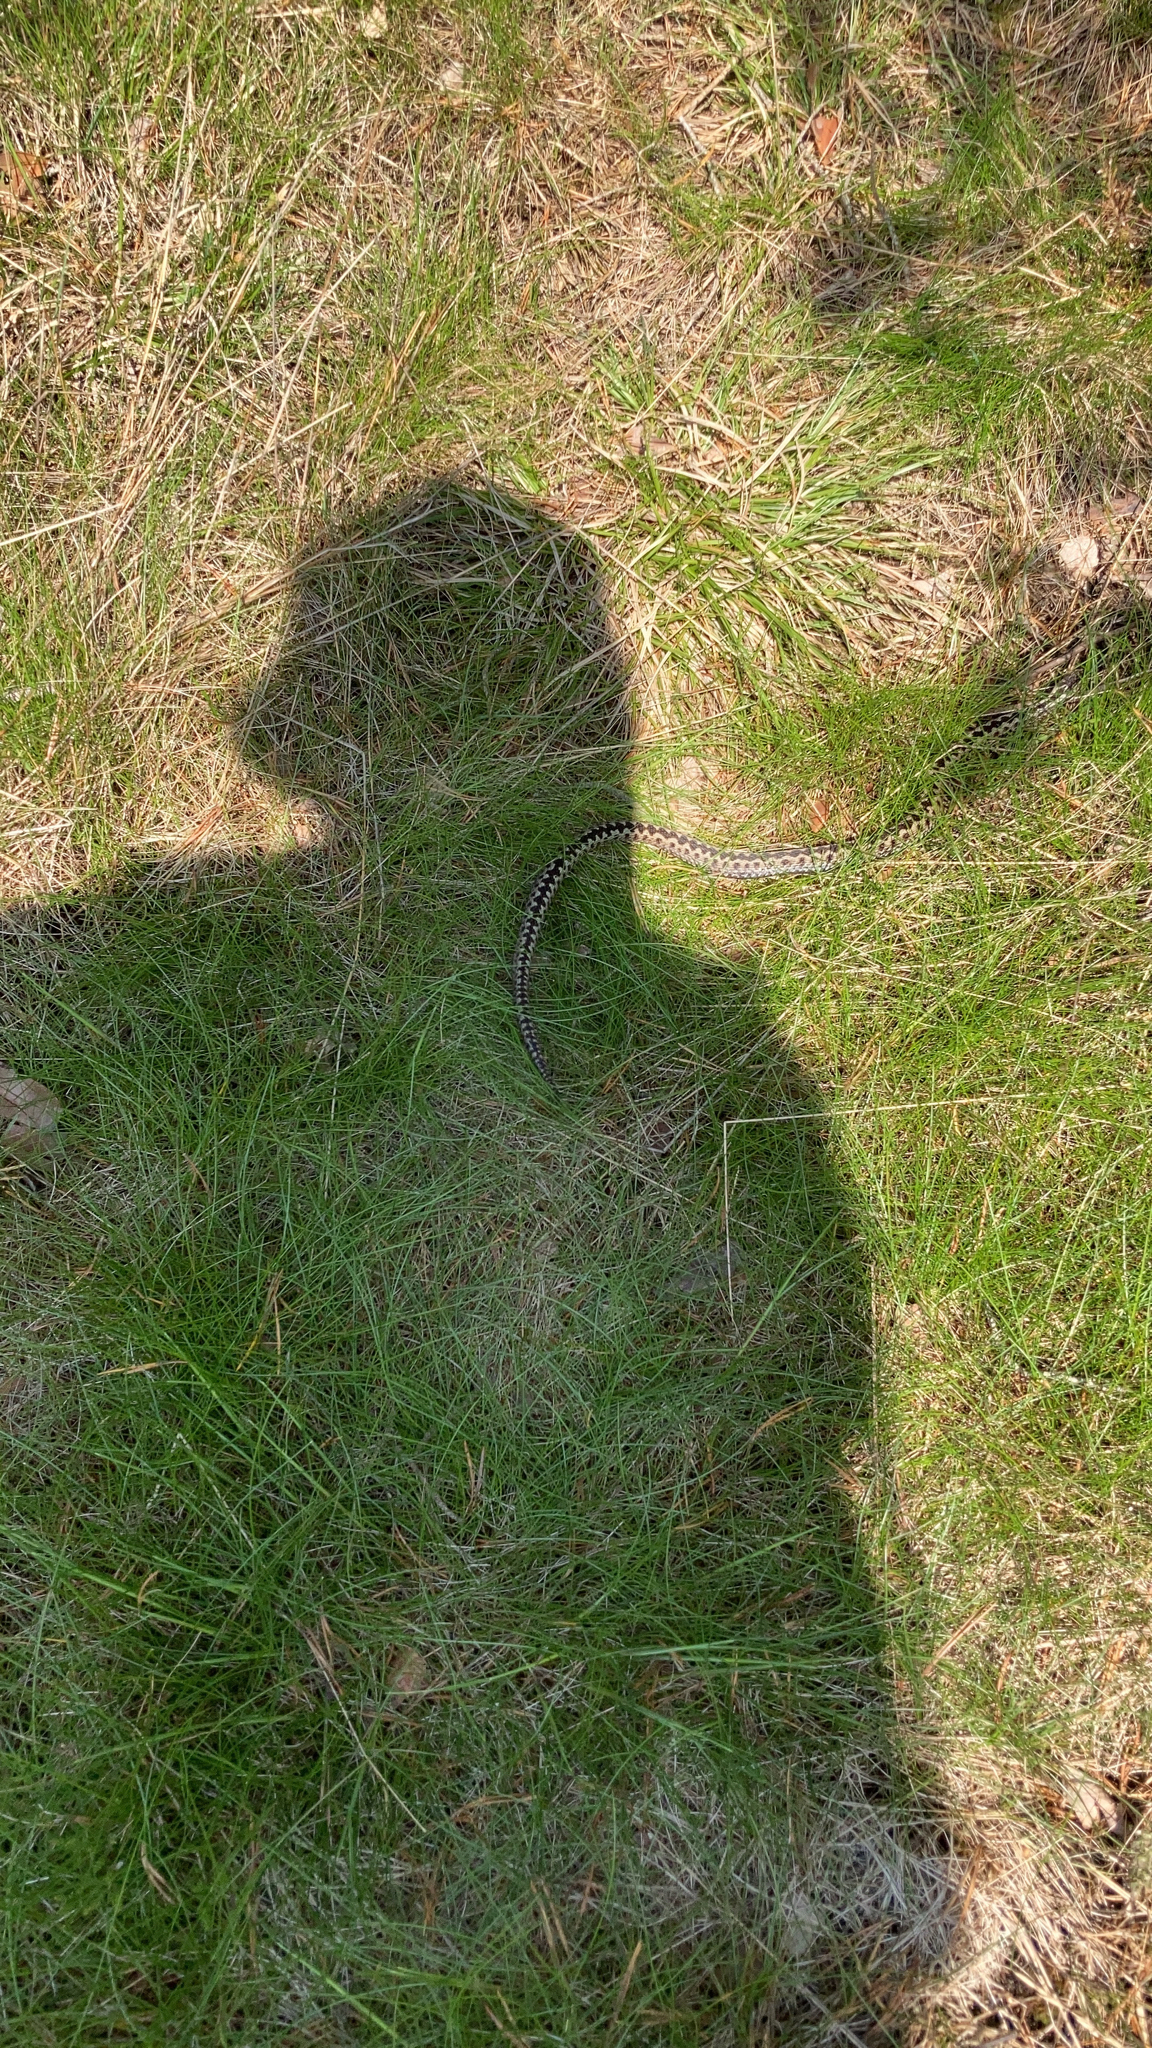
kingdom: Animalia
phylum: Chordata
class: Squamata
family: Viperidae
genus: Vipera
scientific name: Vipera berus
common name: Adder
